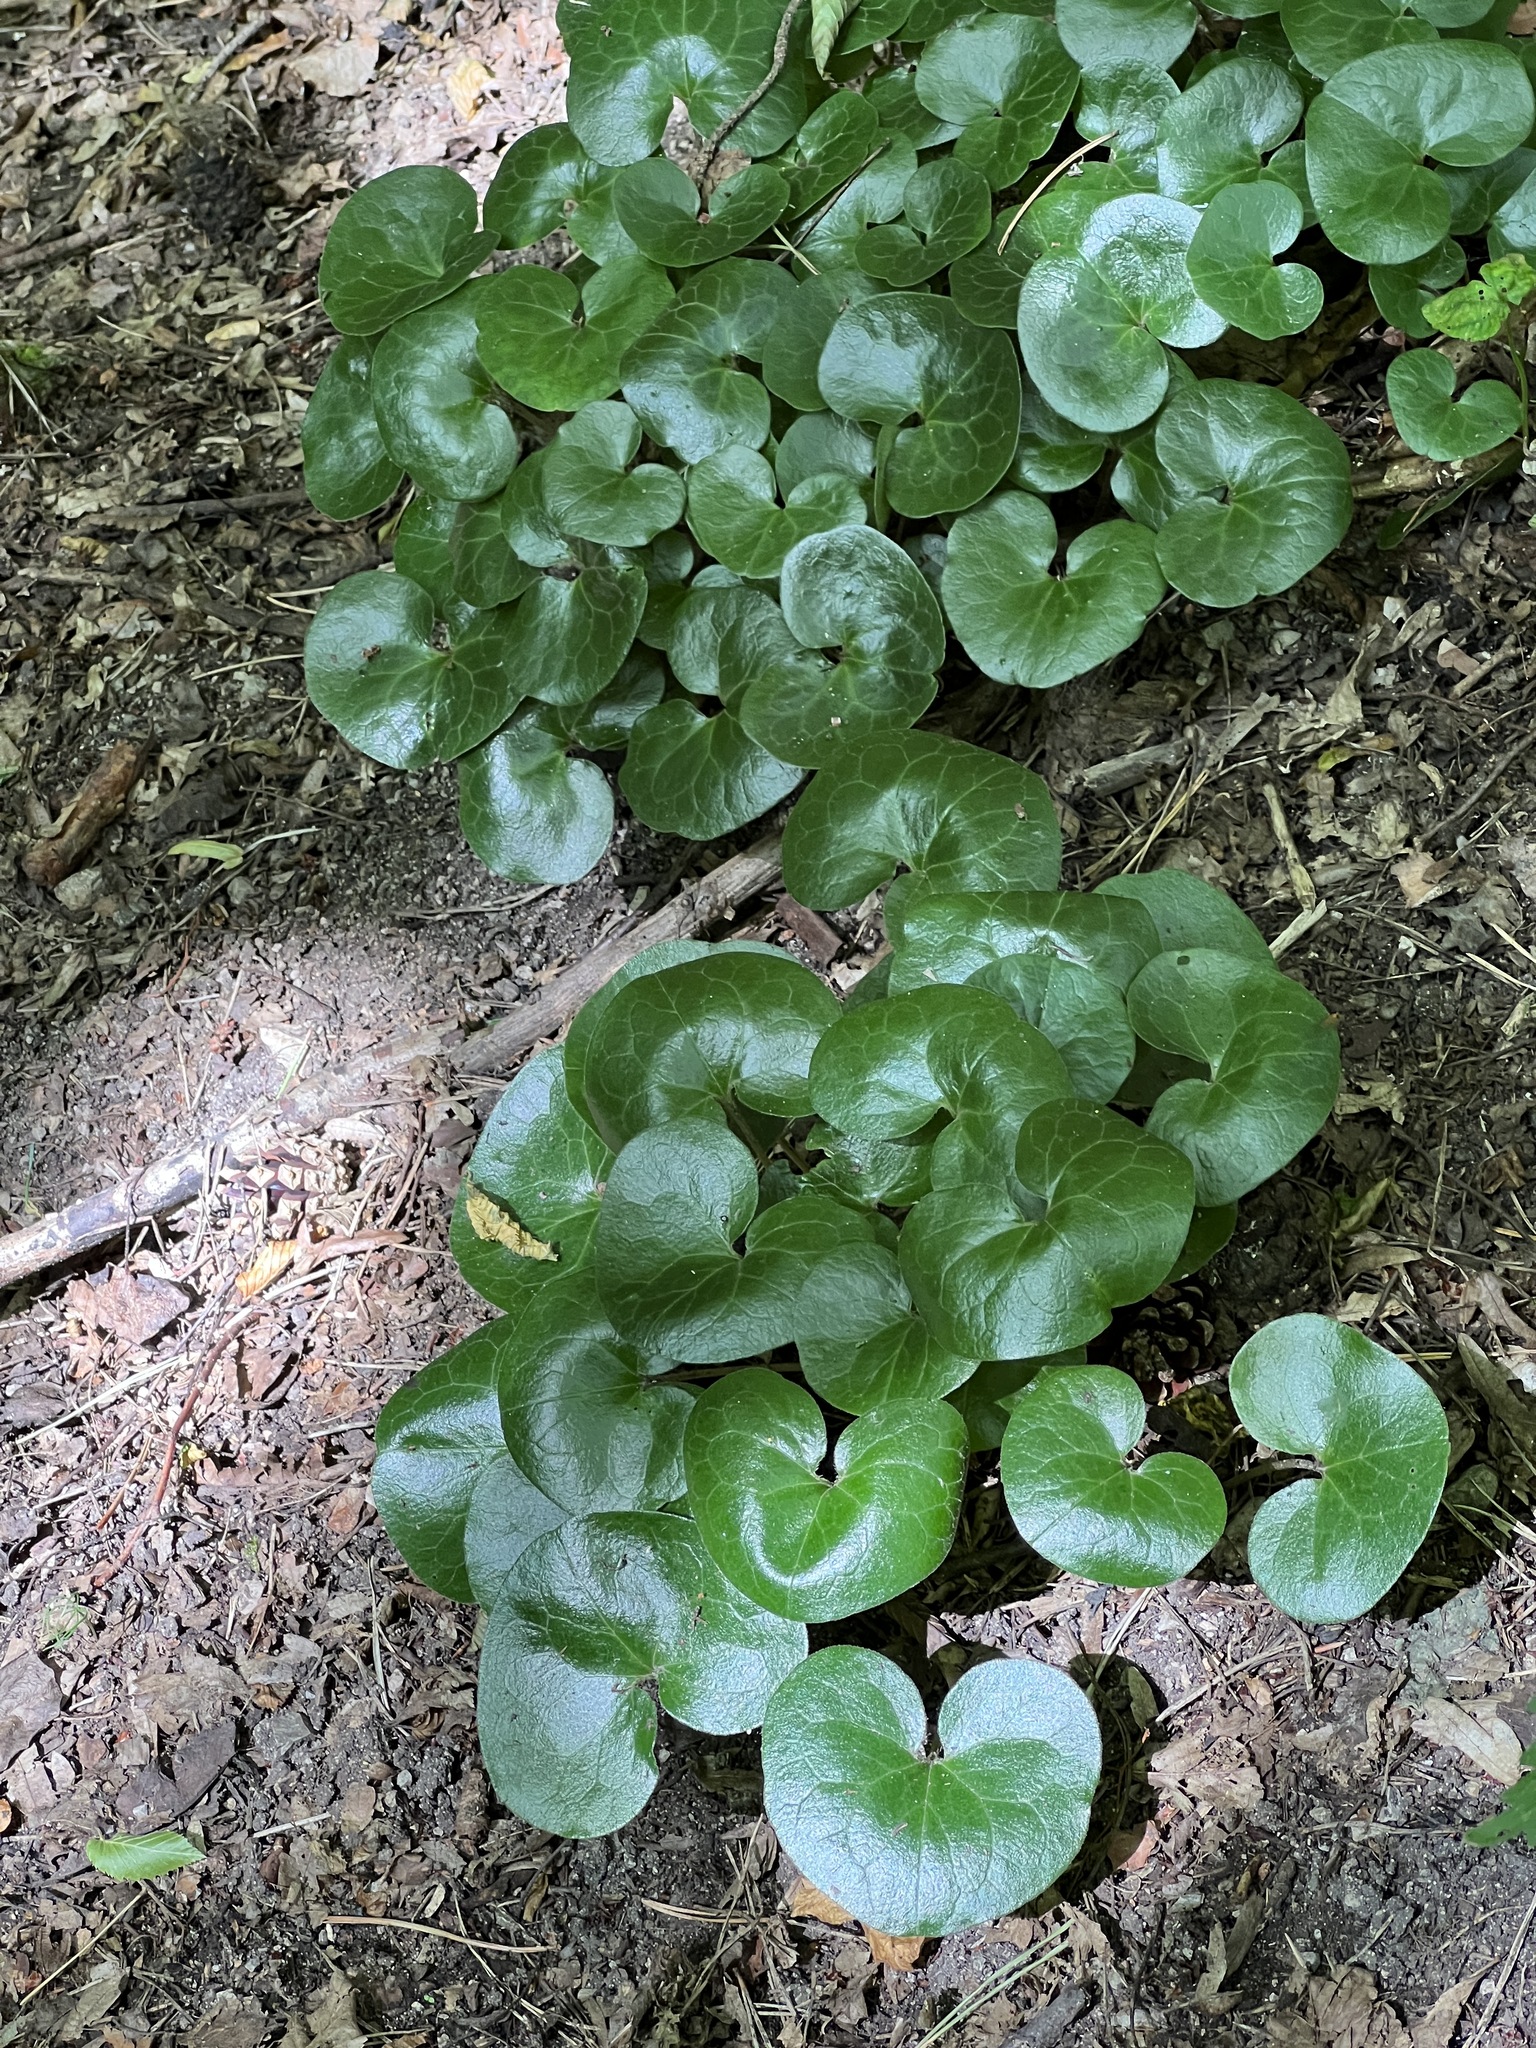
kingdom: Plantae
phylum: Tracheophyta
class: Magnoliopsida
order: Piperales
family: Aristolochiaceae
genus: Asarum
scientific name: Asarum europaeum
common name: Asarabacca
